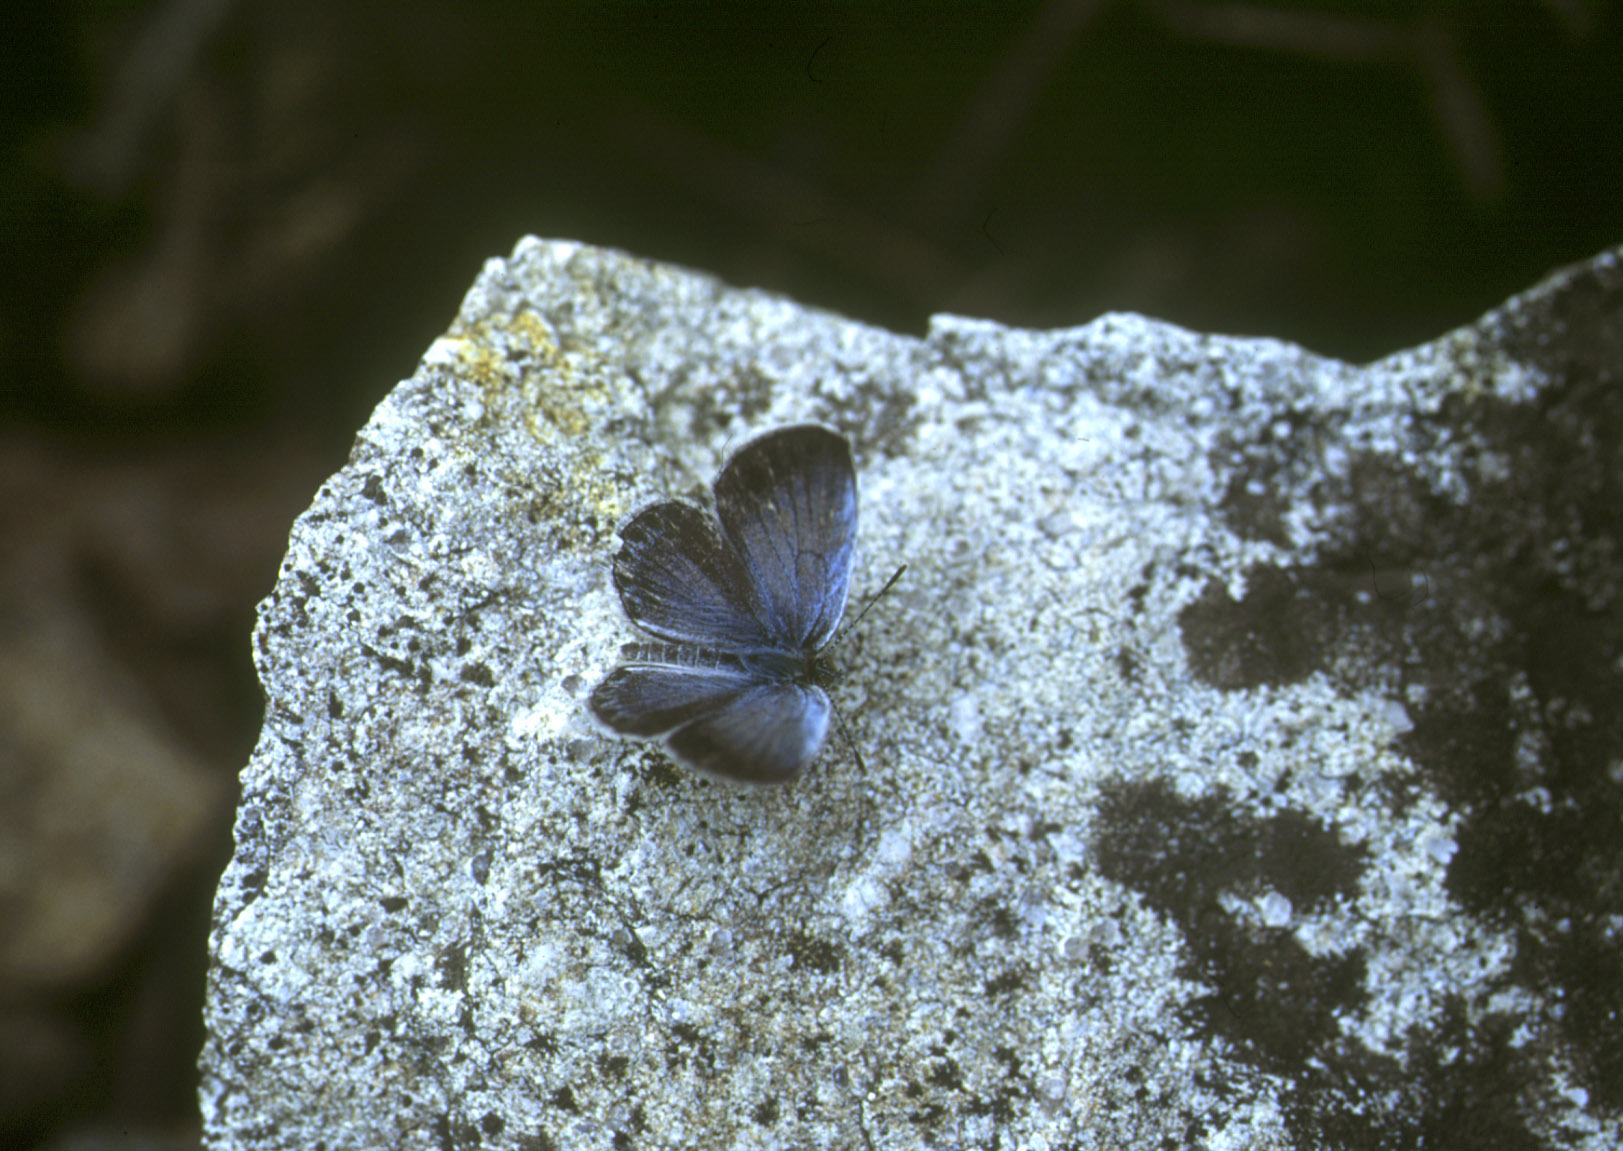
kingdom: Animalia
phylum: Arthropoda
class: Insecta
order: Lepidoptera
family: Lycaenidae
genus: Pseudozizeeria
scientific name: Pseudozizeeria maha
